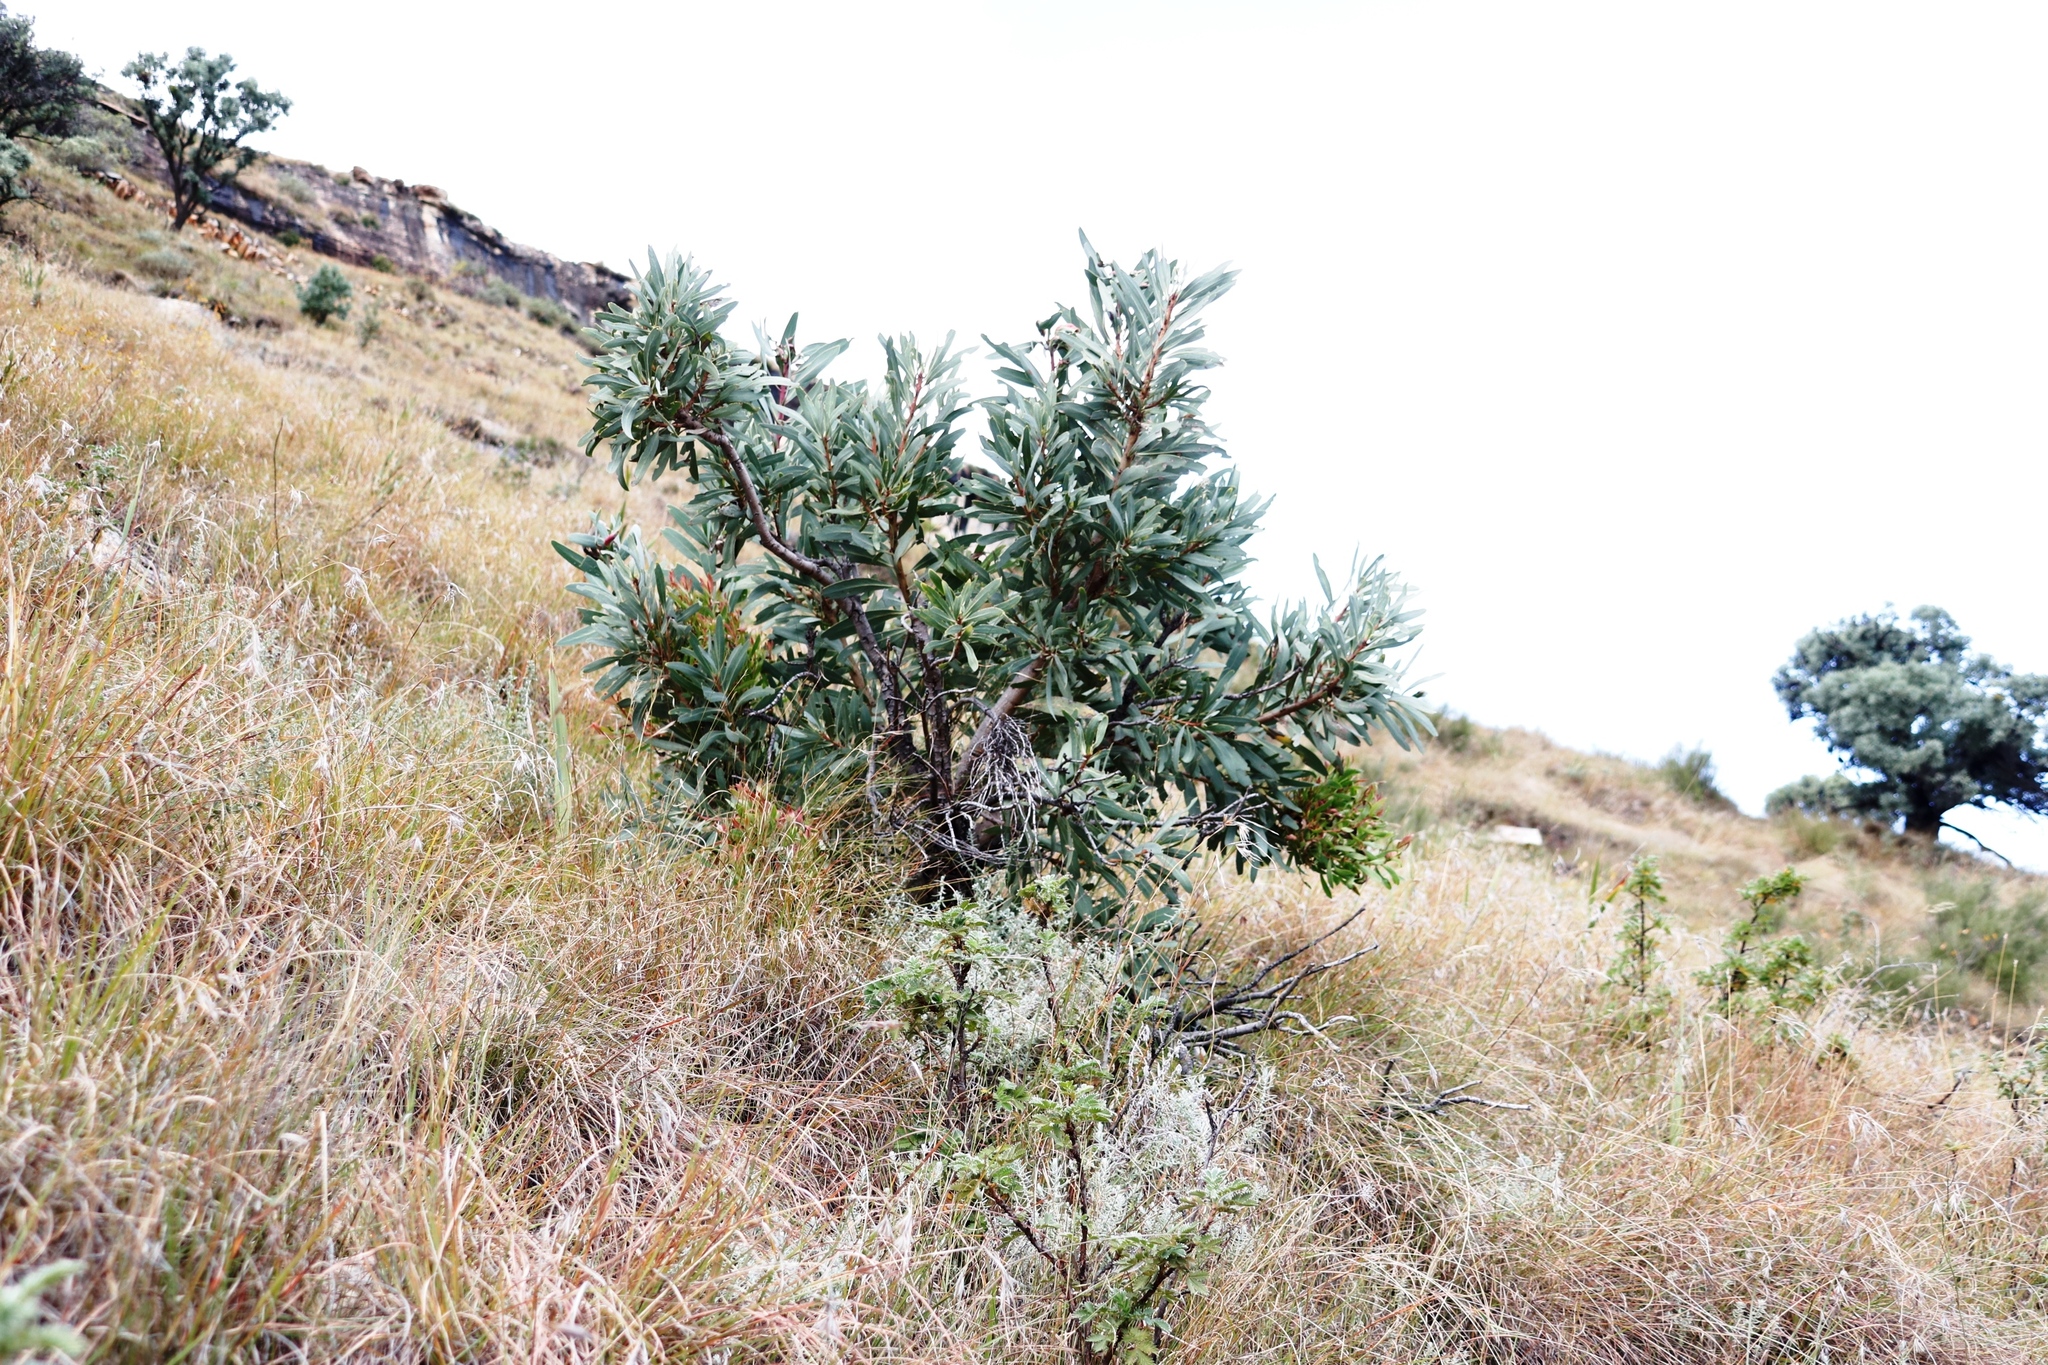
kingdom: Plantae
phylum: Tracheophyta
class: Magnoliopsida
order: Proteales
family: Proteaceae
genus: Protea
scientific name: Protea caffra
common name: Common sugarbush
